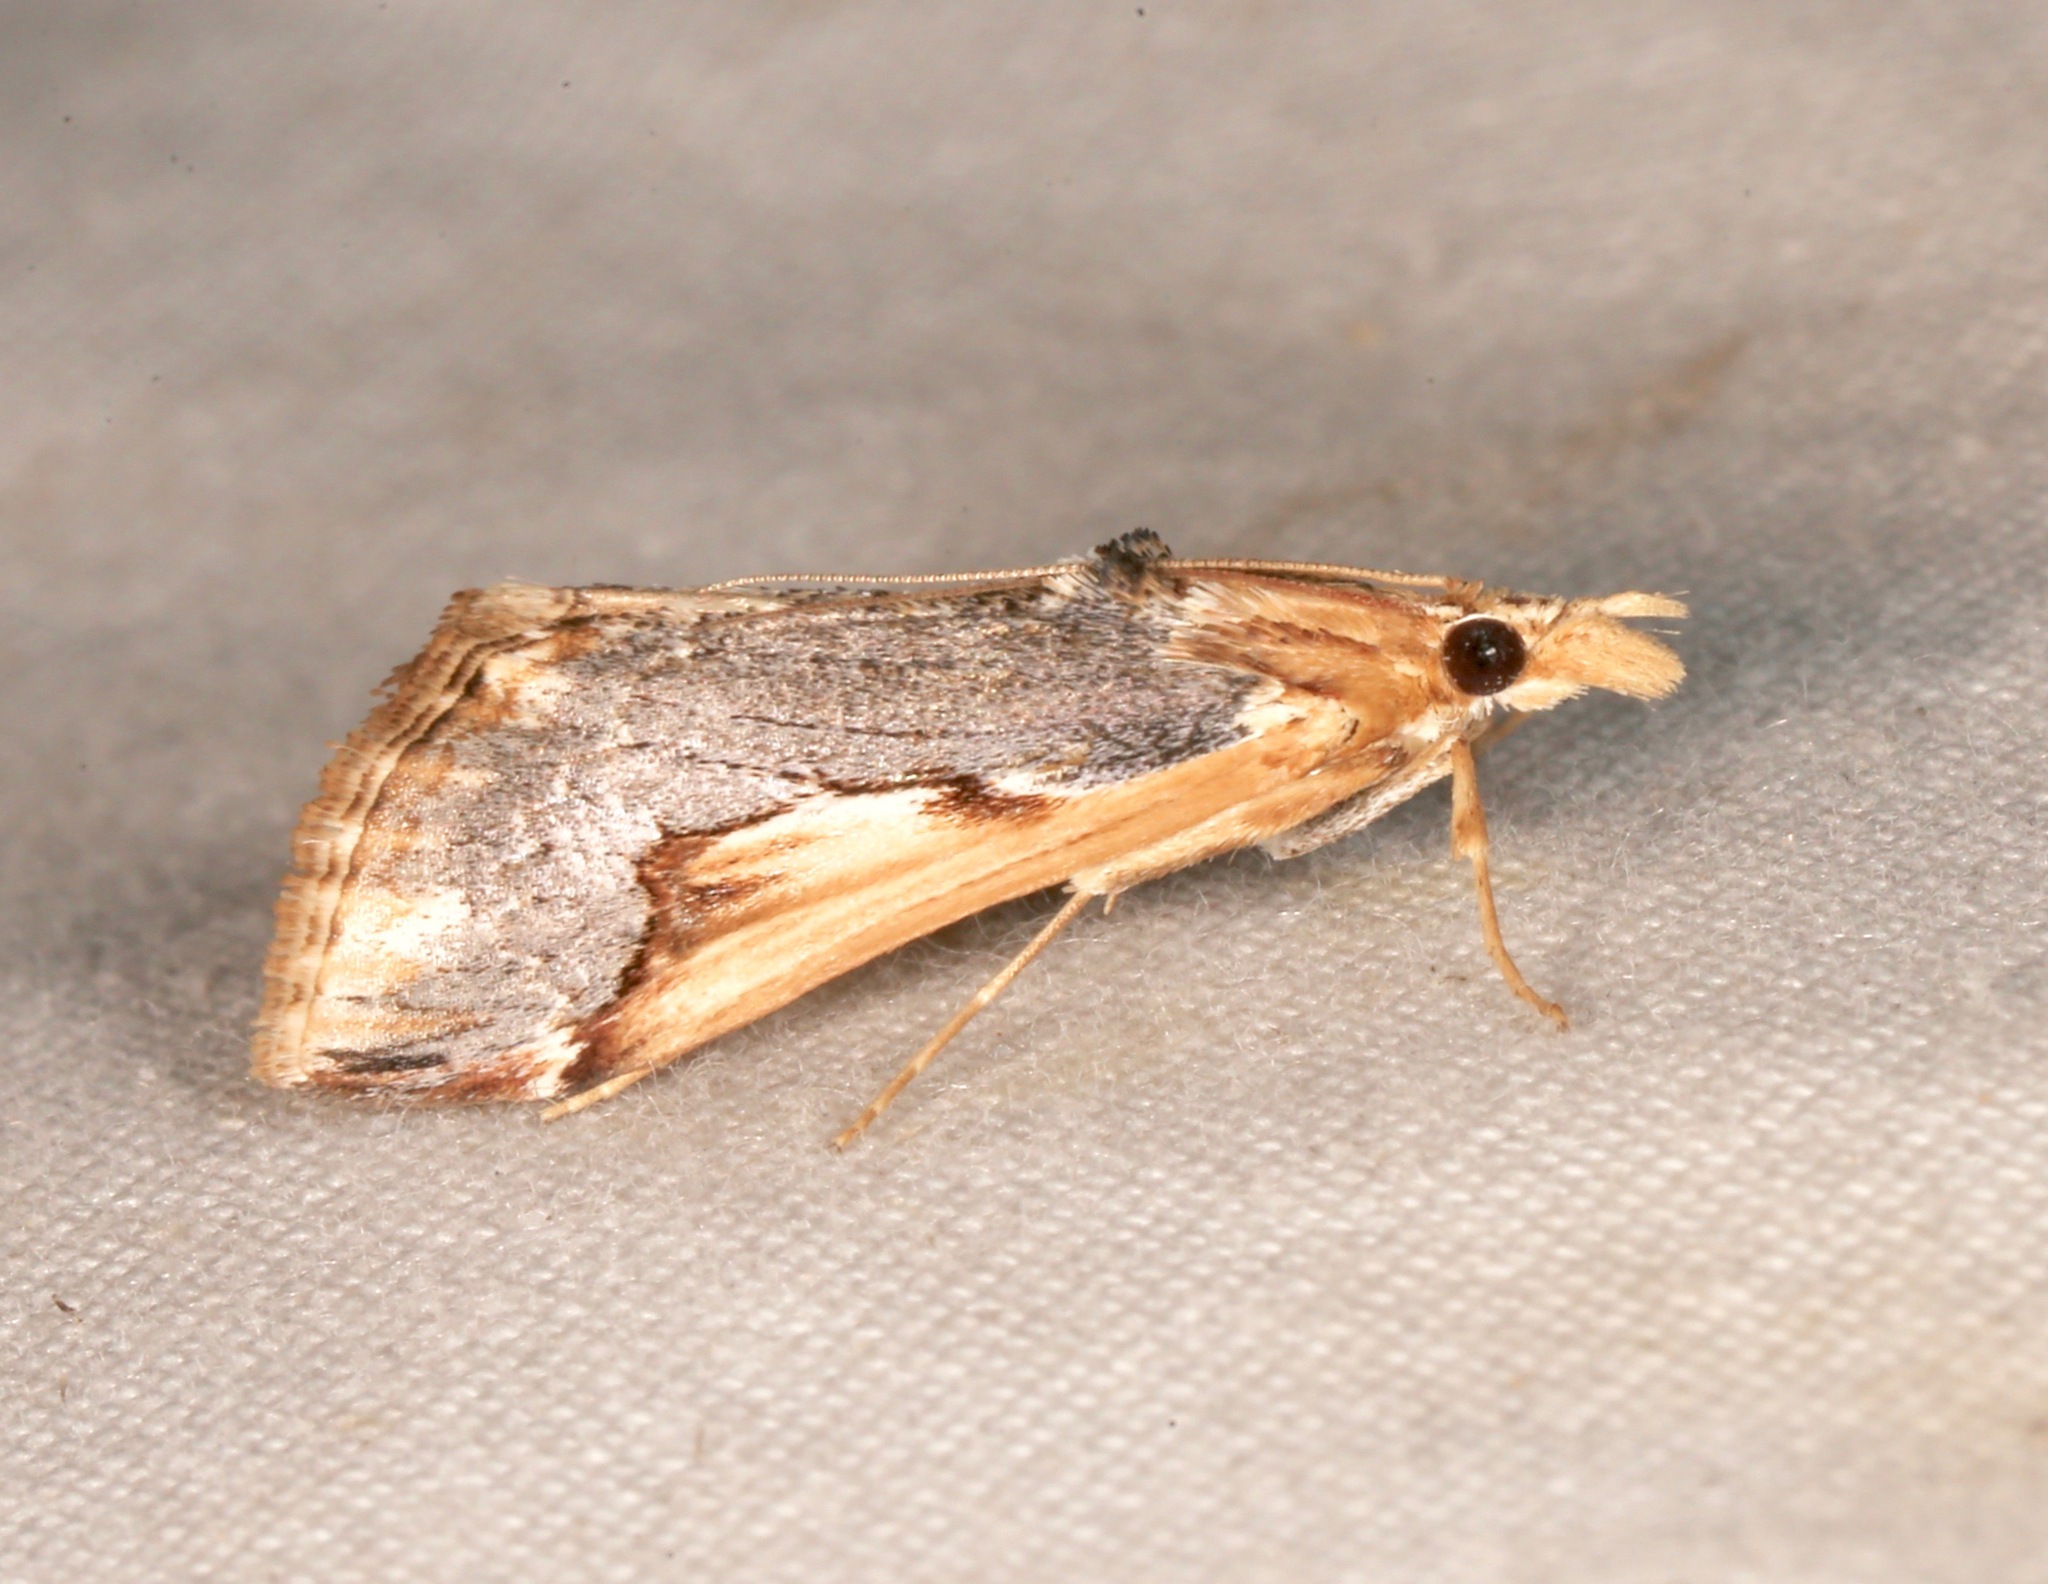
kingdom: Animalia
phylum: Arthropoda
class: Insecta
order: Lepidoptera
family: Crambidae
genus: Loxostege
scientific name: Loxostege albiceralis
